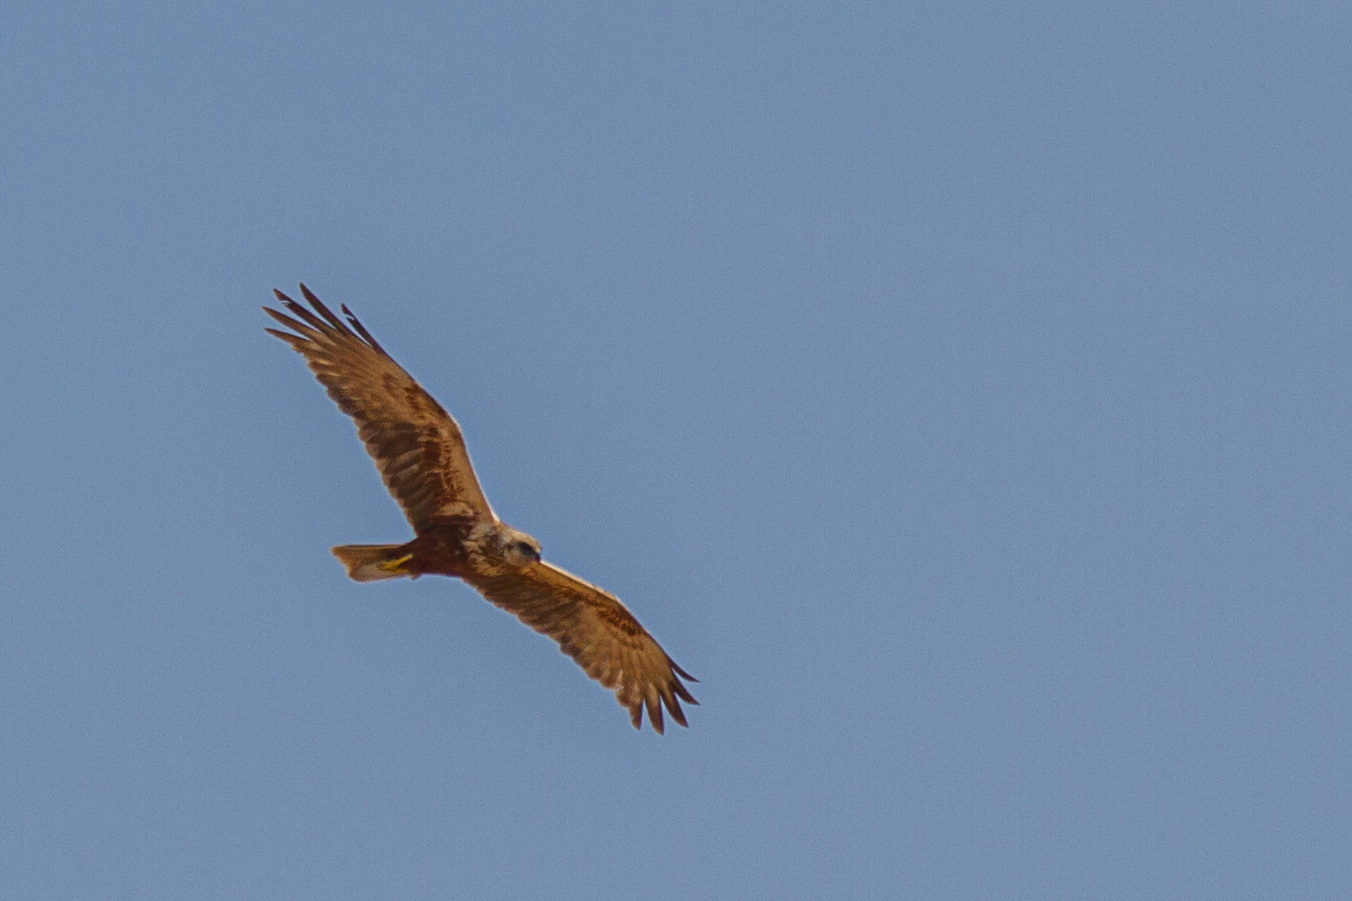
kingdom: Animalia
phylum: Chordata
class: Aves
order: Accipitriformes
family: Accipitridae
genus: Circus
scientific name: Circus aeruginosus
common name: Western marsh harrier
